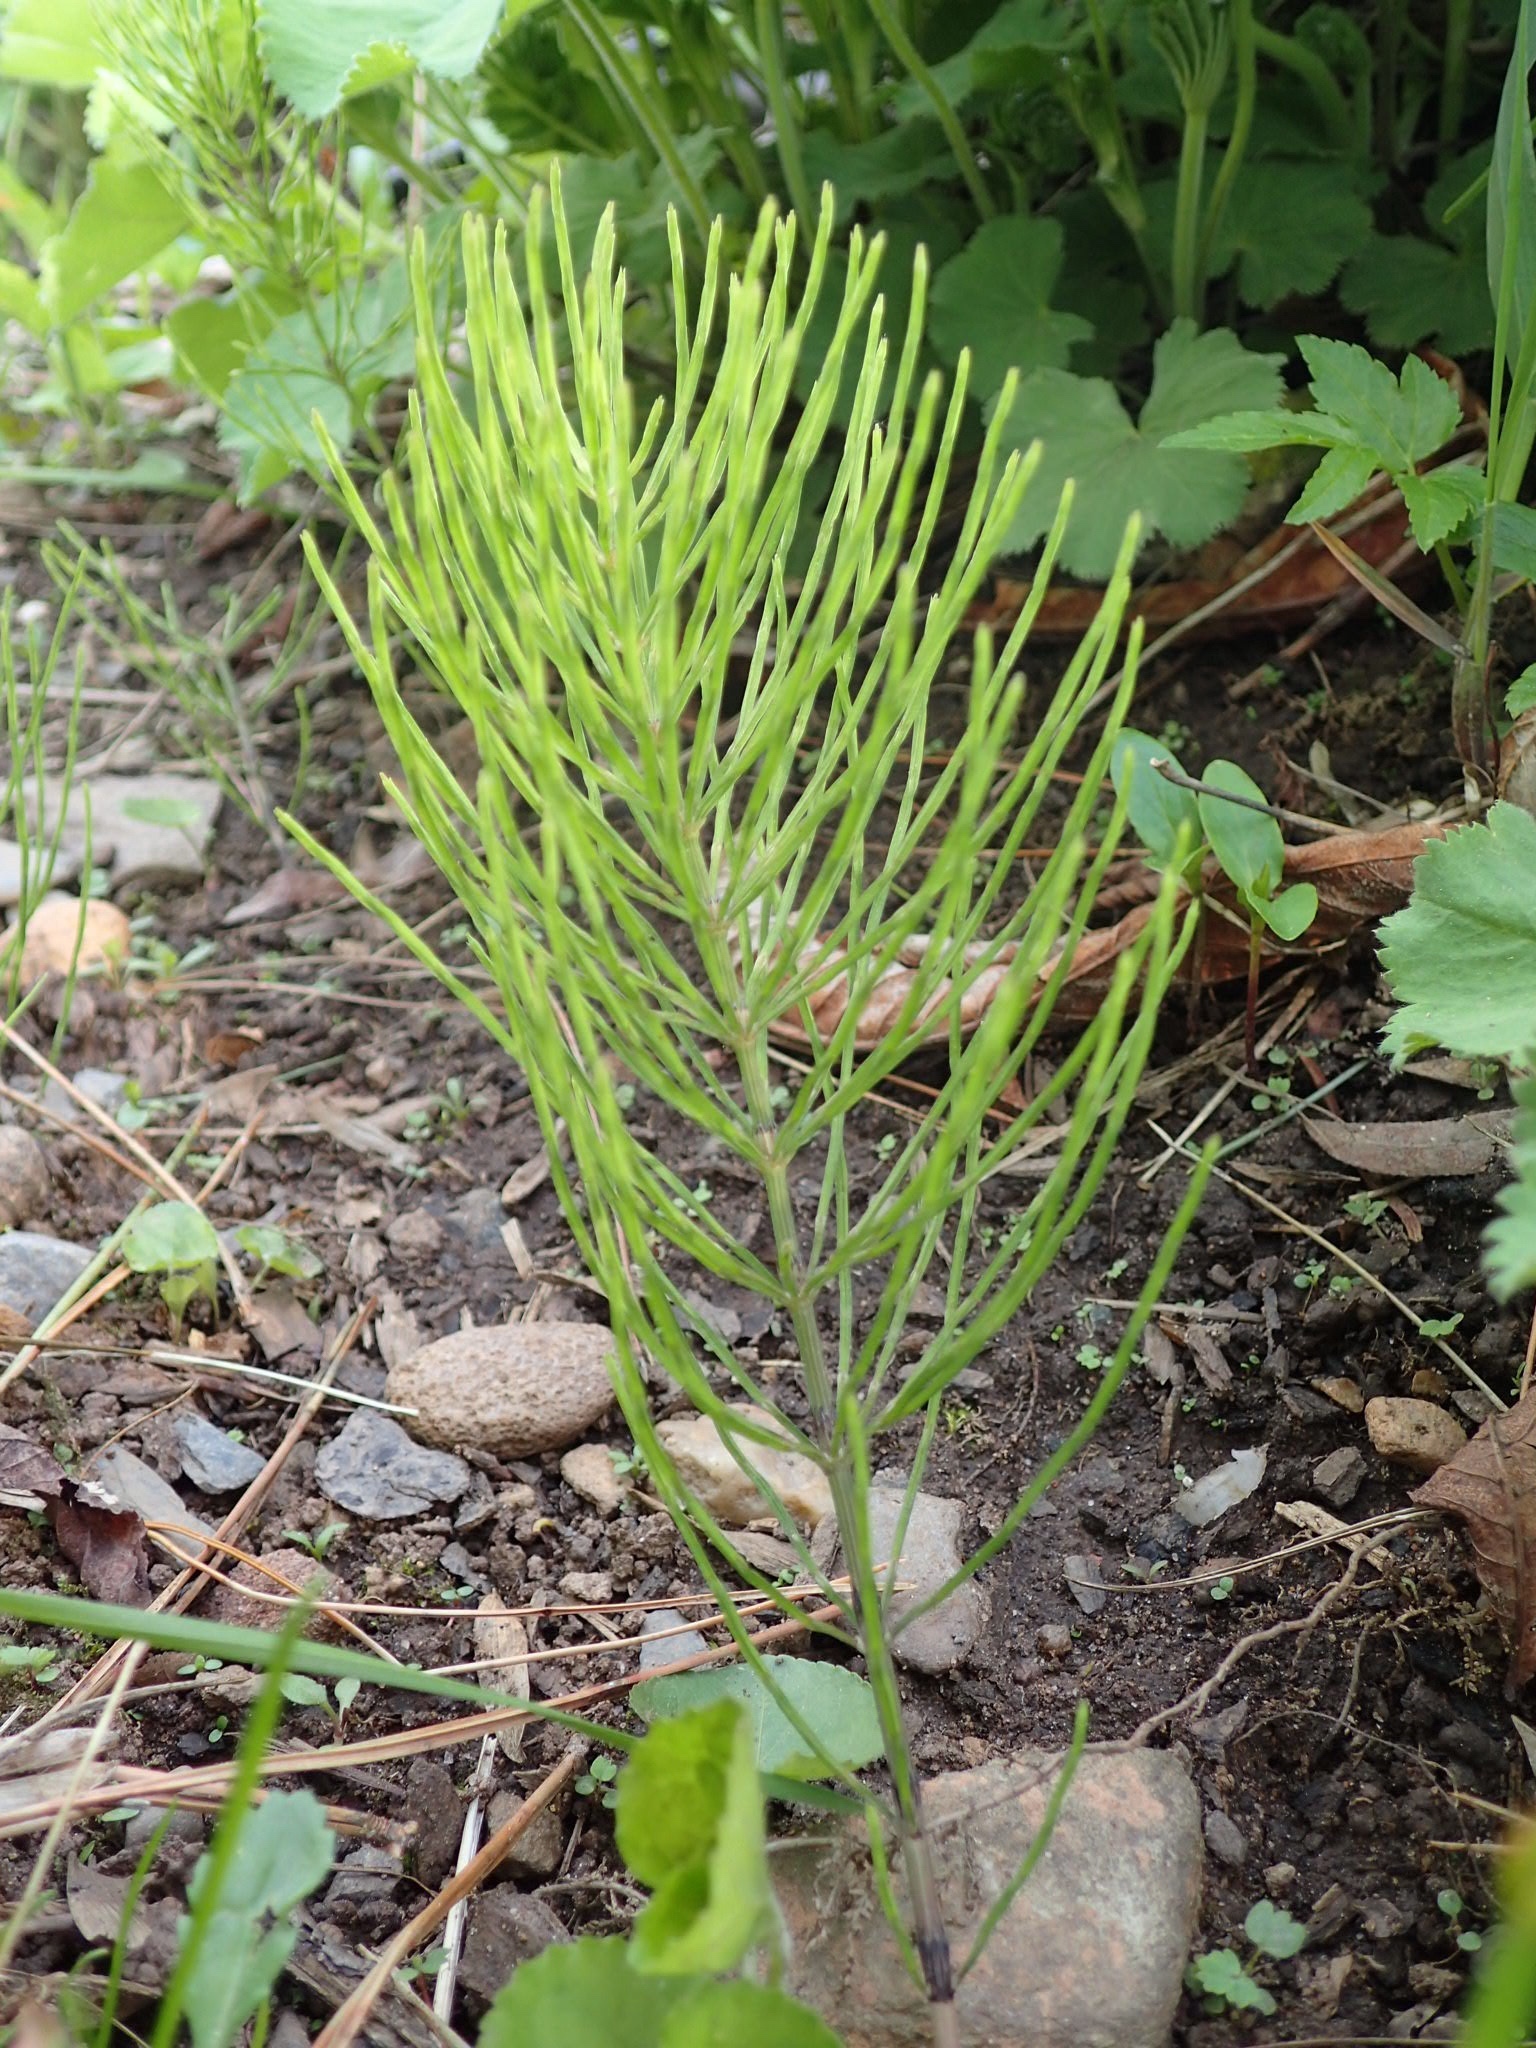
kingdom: Plantae
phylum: Tracheophyta
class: Polypodiopsida
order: Equisetales
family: Equisetaceae
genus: Equisetum
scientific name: Equisetum arvense
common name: Field horsetail
